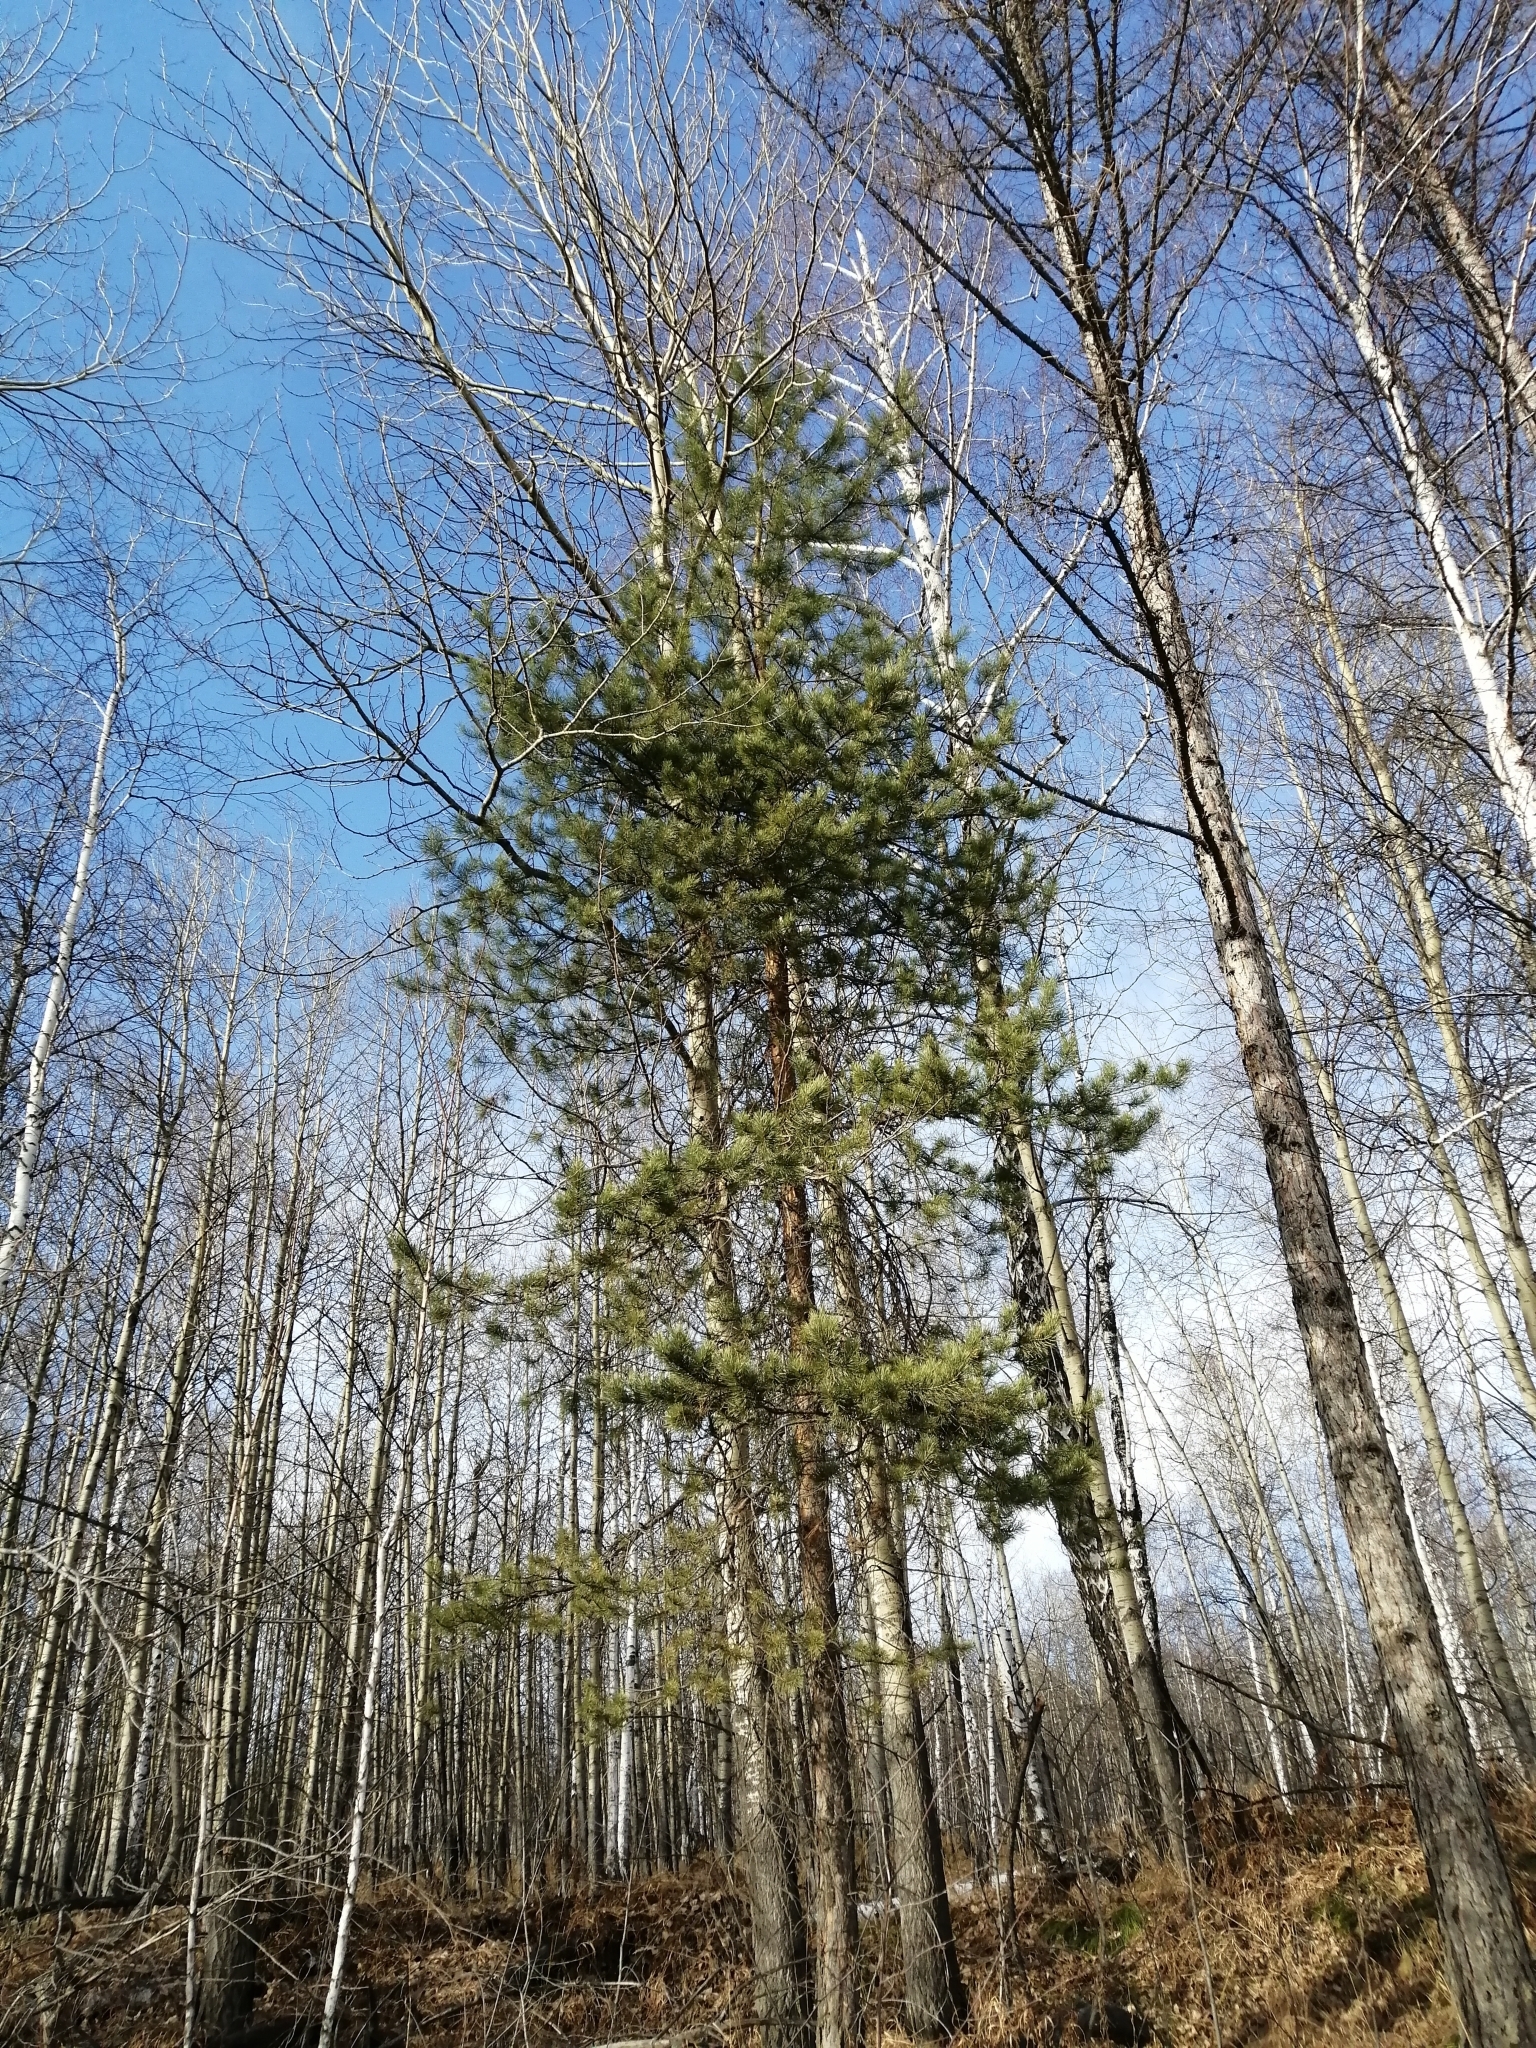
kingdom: Plantae
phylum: Tracheophyta
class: Pinopsida
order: Pinales
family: Pinaceae
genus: Pinus
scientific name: Pinus sylvestris
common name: Scots pine
